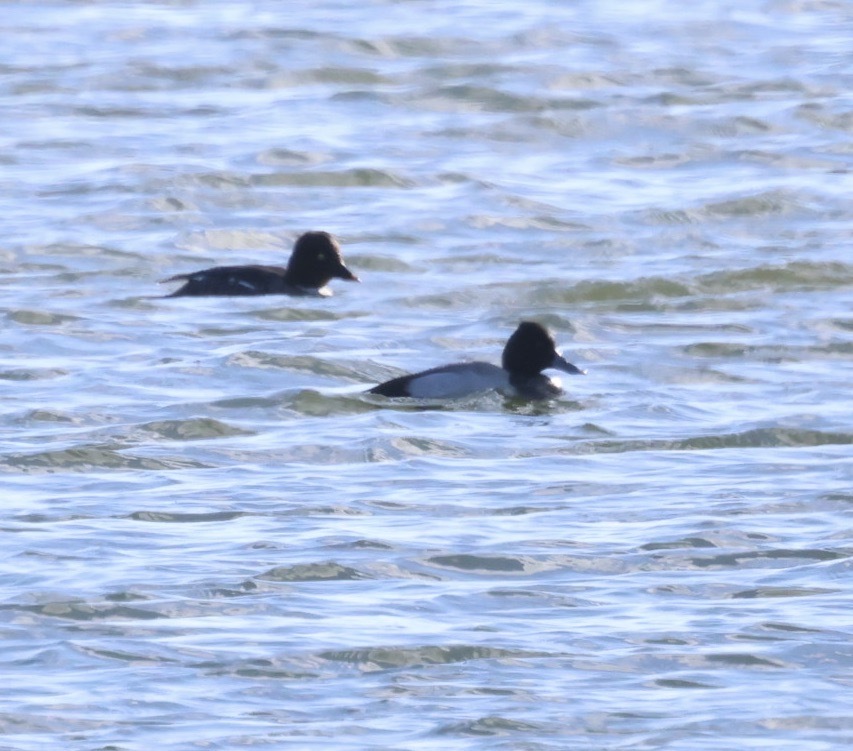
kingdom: Animalia
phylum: Chordata
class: Aves
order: Anseriformes
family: Anatidae
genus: Aythya
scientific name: Aythya affinis
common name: Lesser scaup
